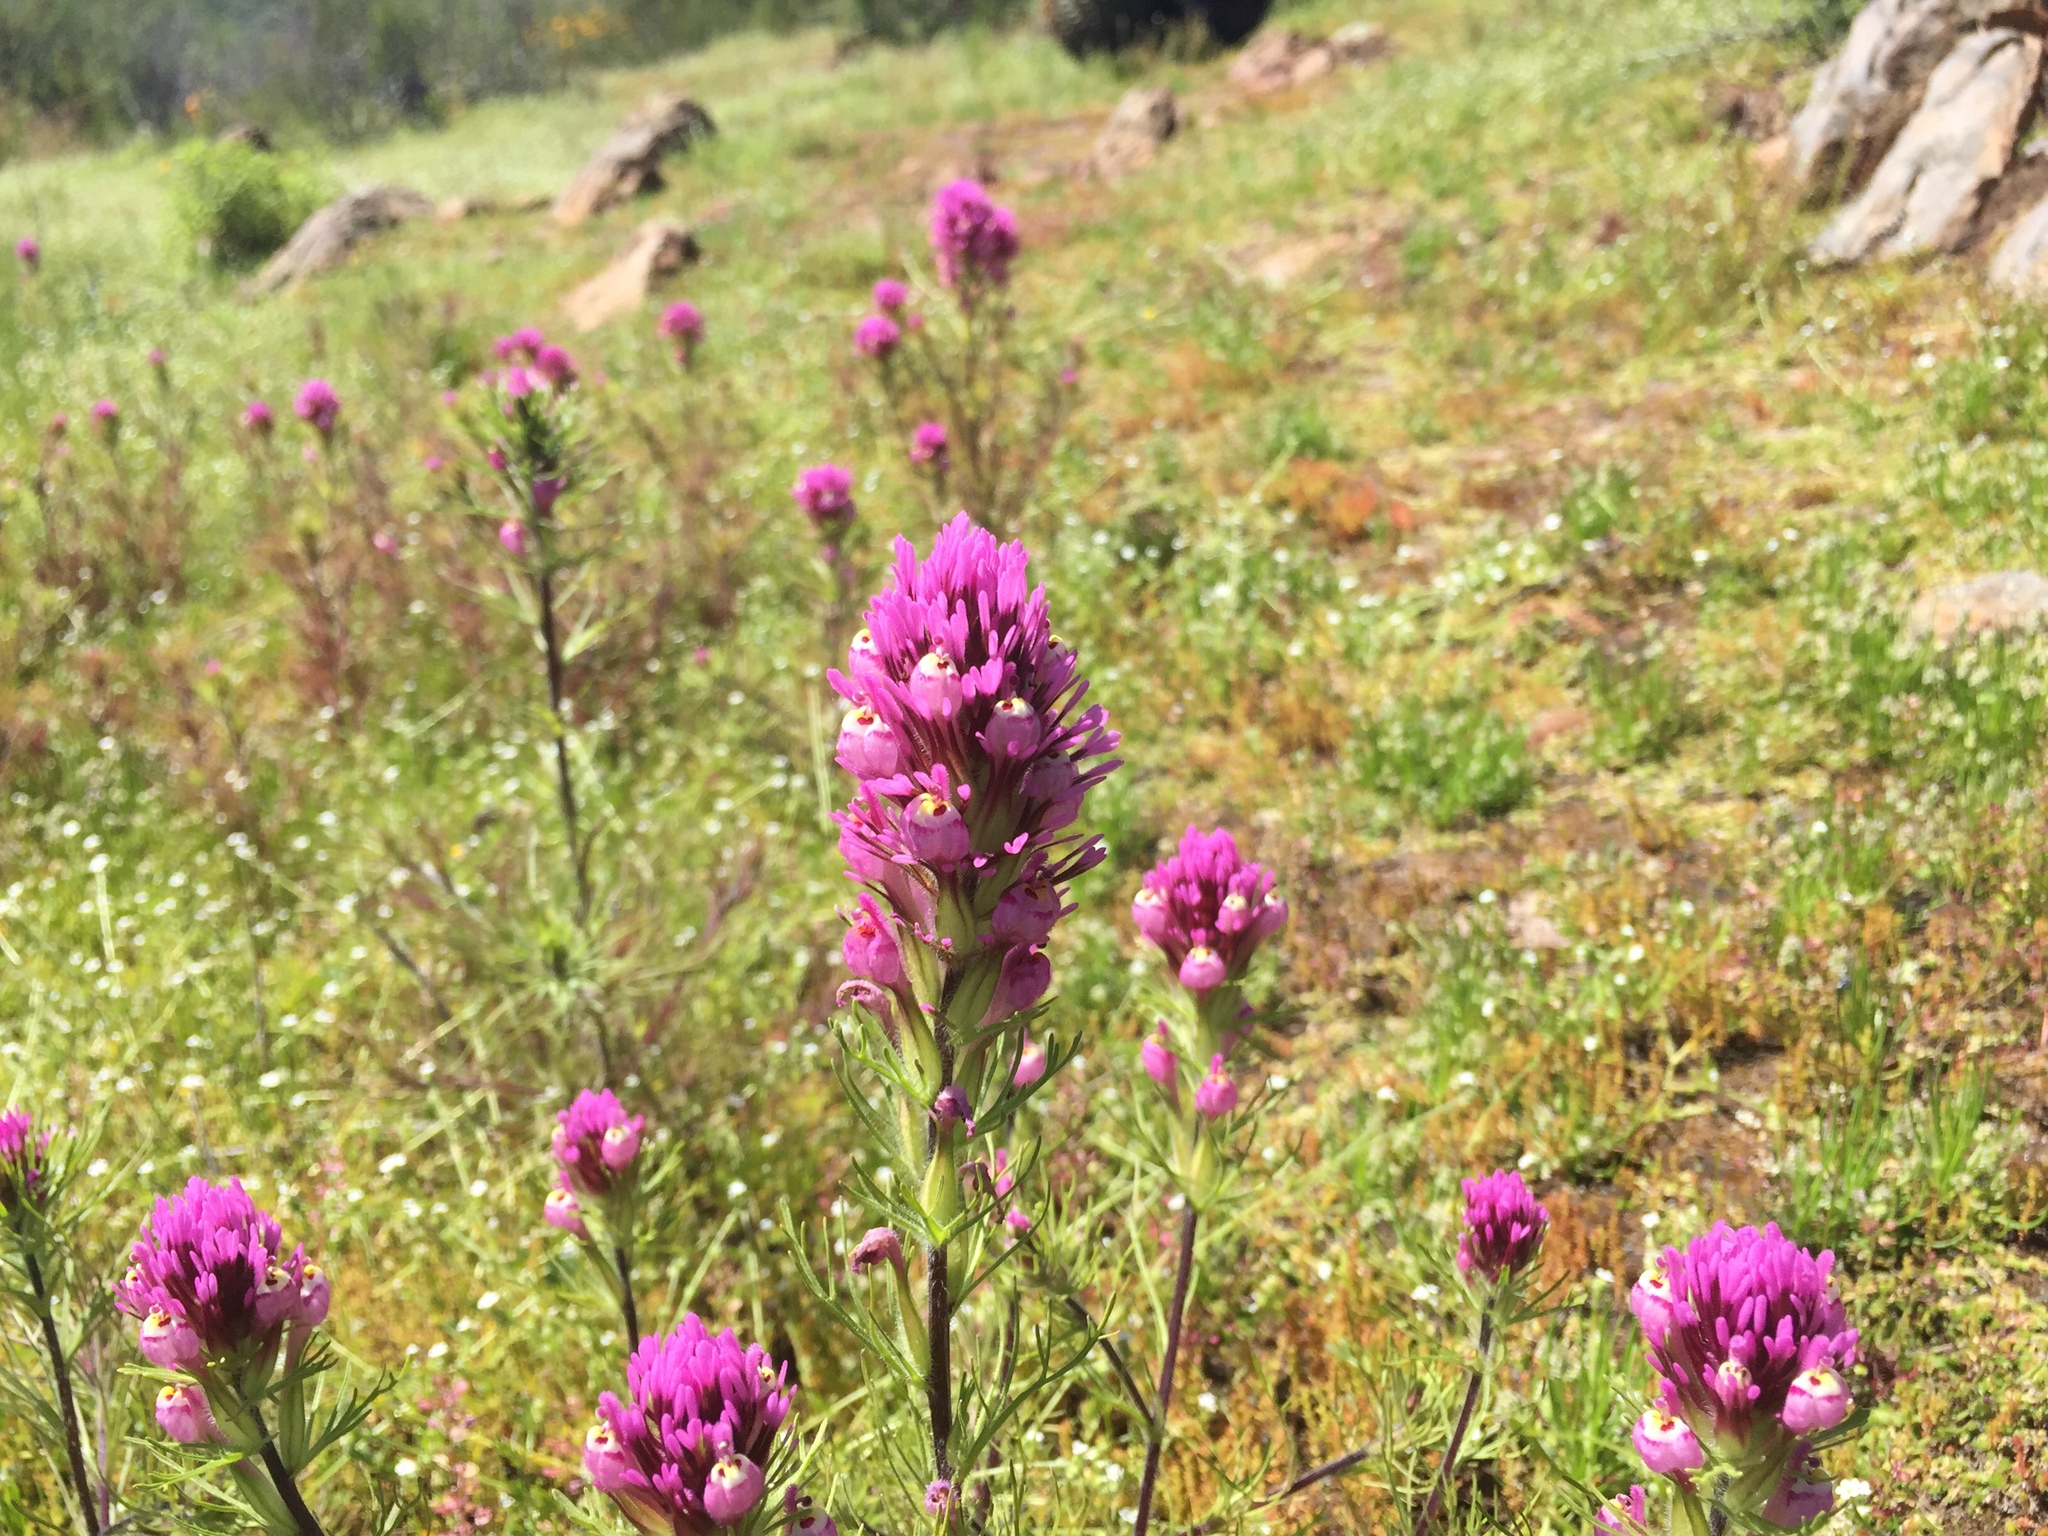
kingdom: Plantae
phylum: Tracheophyta
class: Magnoliopsida
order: Lamiales
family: Orobanchaceae
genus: Castilleja
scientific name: Castilleja exserta
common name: Purple owl-clover
